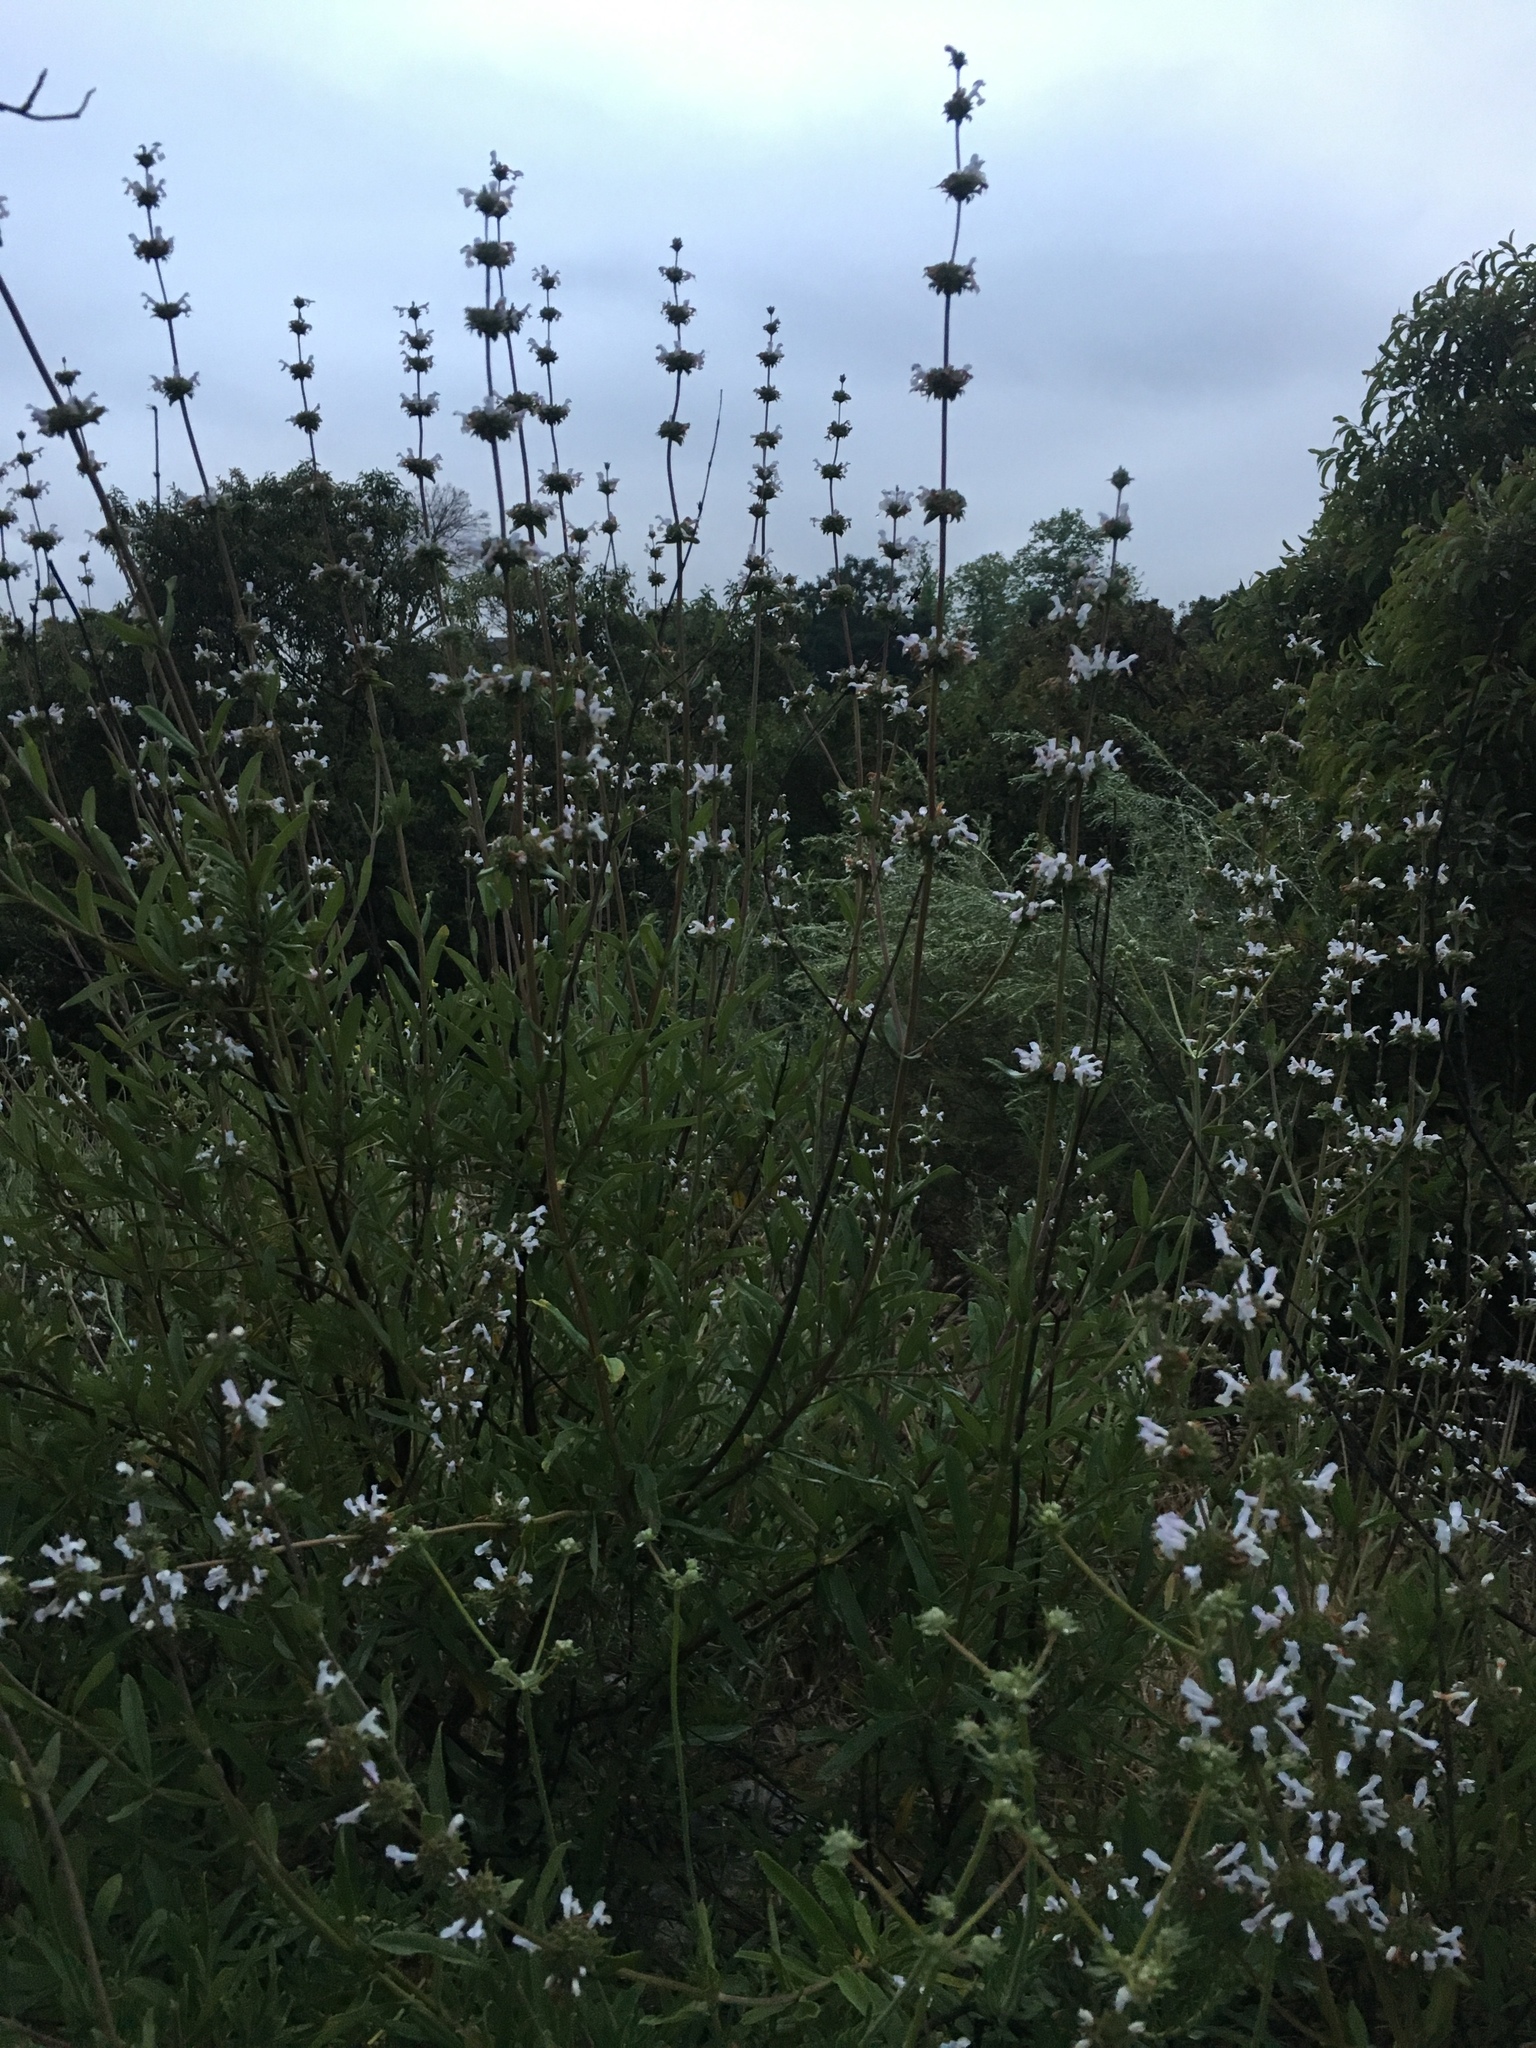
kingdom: Plantae
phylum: Tracheophyta
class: Magnoliopsida
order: Lamiales
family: Lamiaceae
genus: Salvia
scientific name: Salvia mellifera
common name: Black sage
